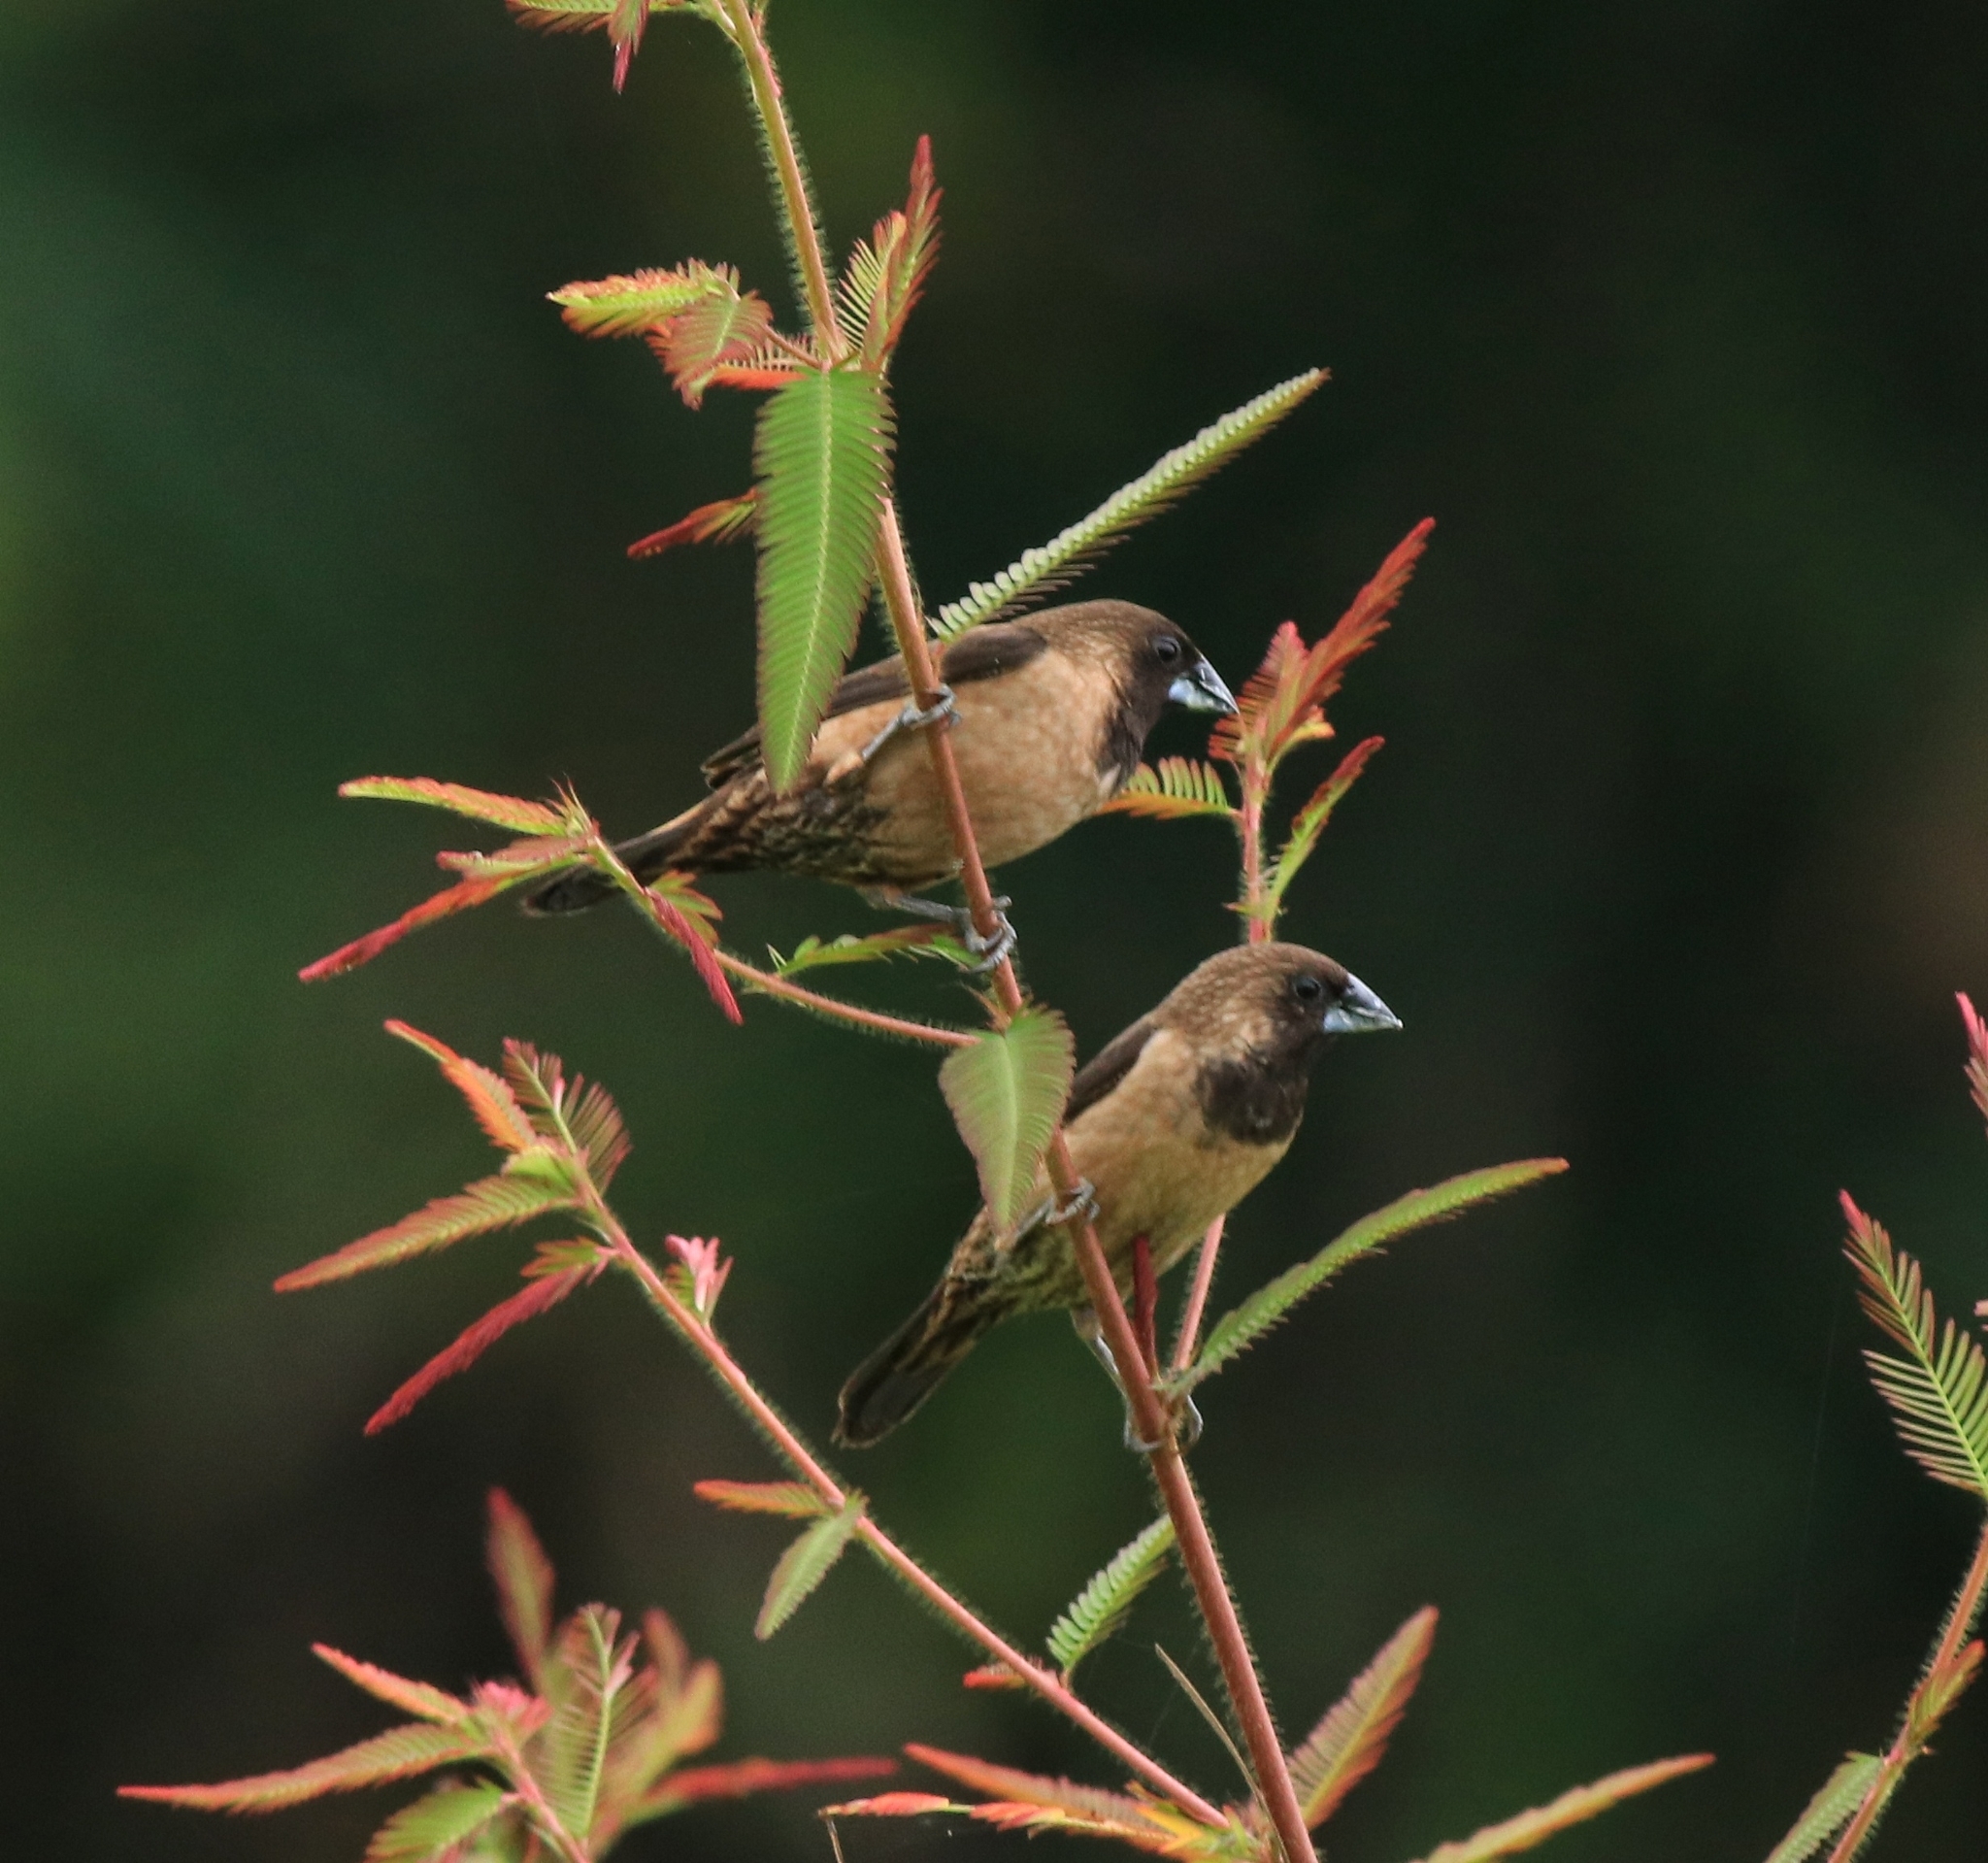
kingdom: Animalia
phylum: Chordata
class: Aves
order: Passeriformes
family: Estrildidae
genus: Lonchura
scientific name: Lonchura kelaarti
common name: Black-throated munia
